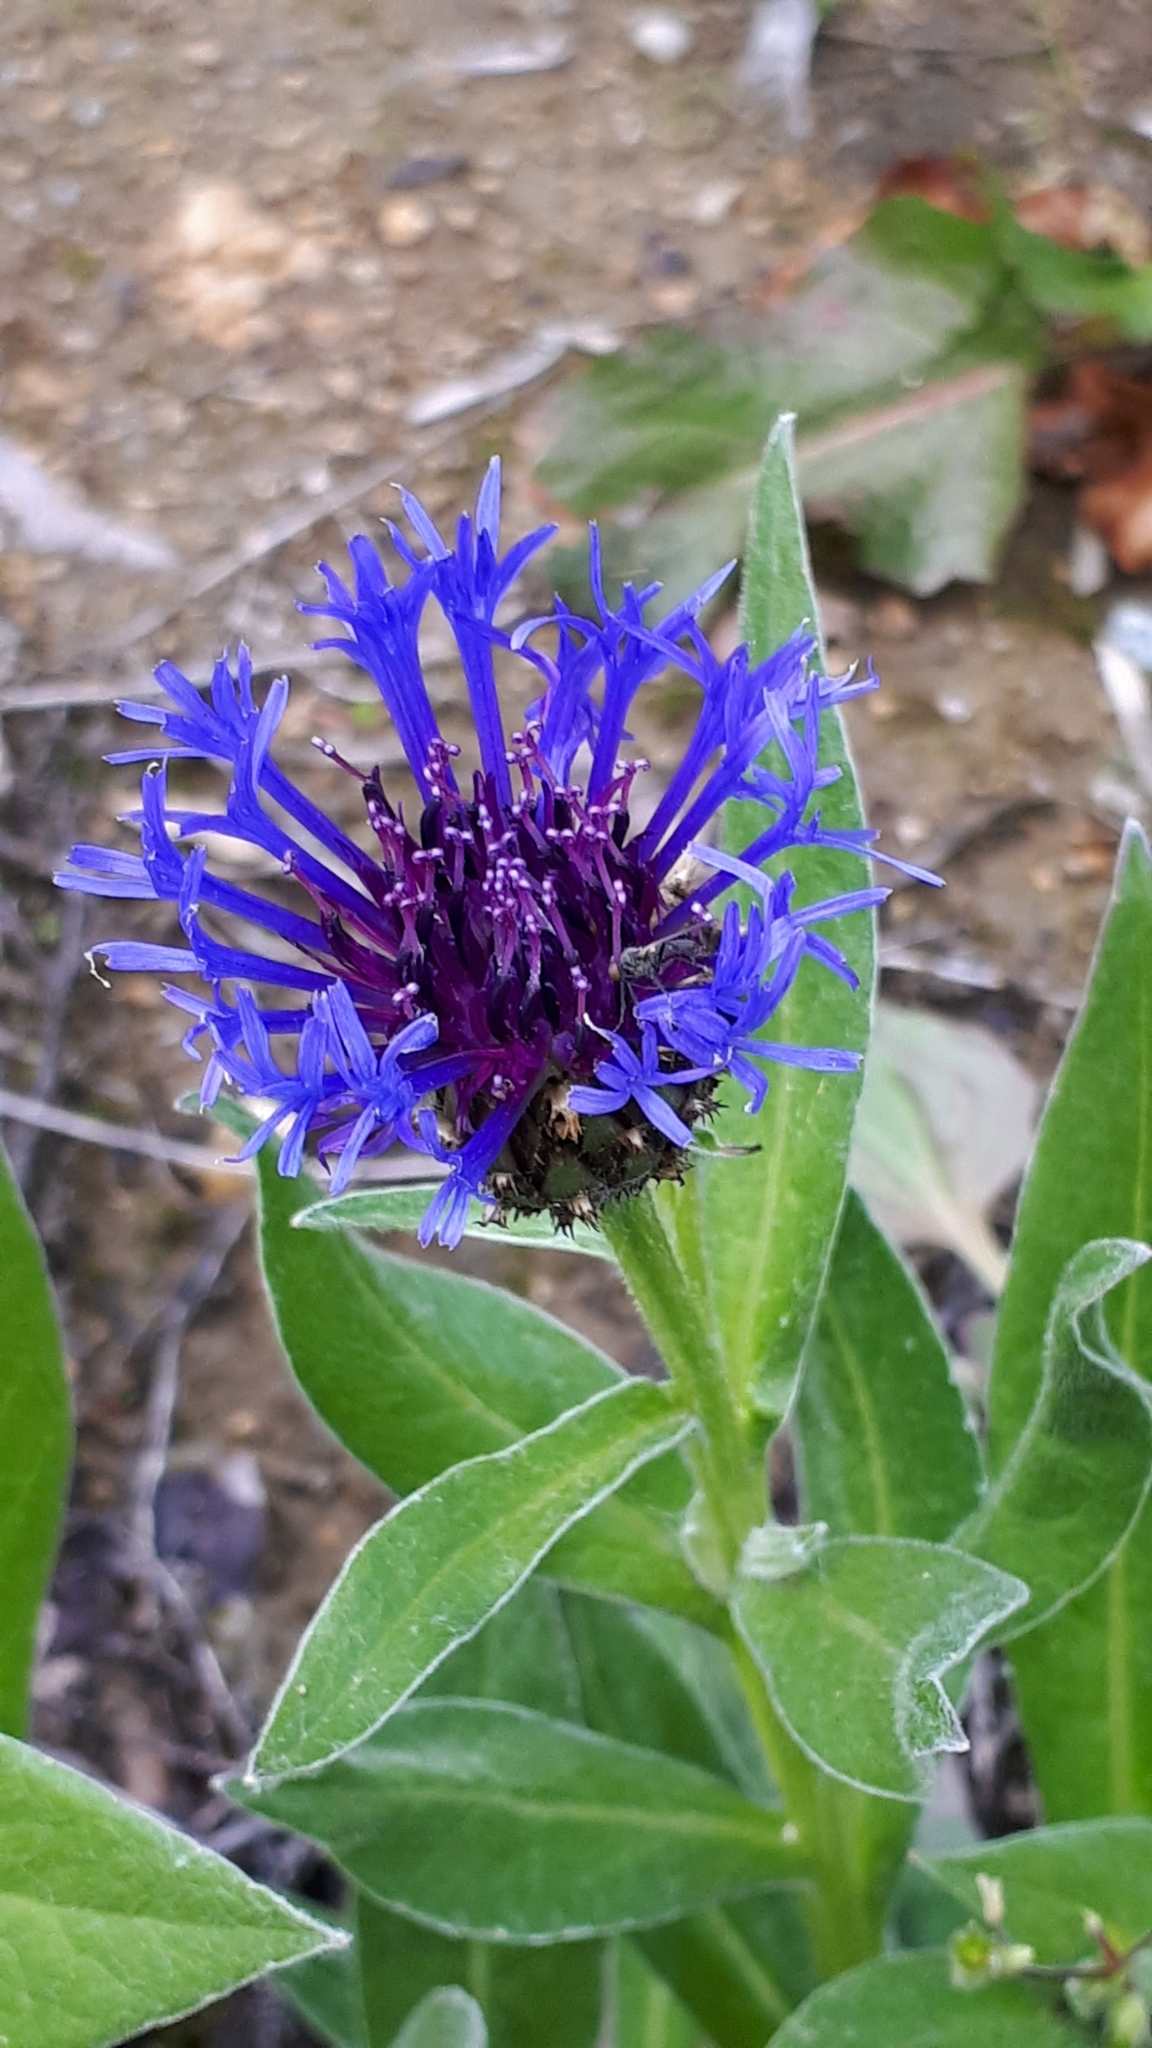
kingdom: Plantae
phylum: Tracheophyta
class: Magnoliopsida
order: Asterales
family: Asteraceae
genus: Centaurea
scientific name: Centaurea montana
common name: Perennial cornflower
